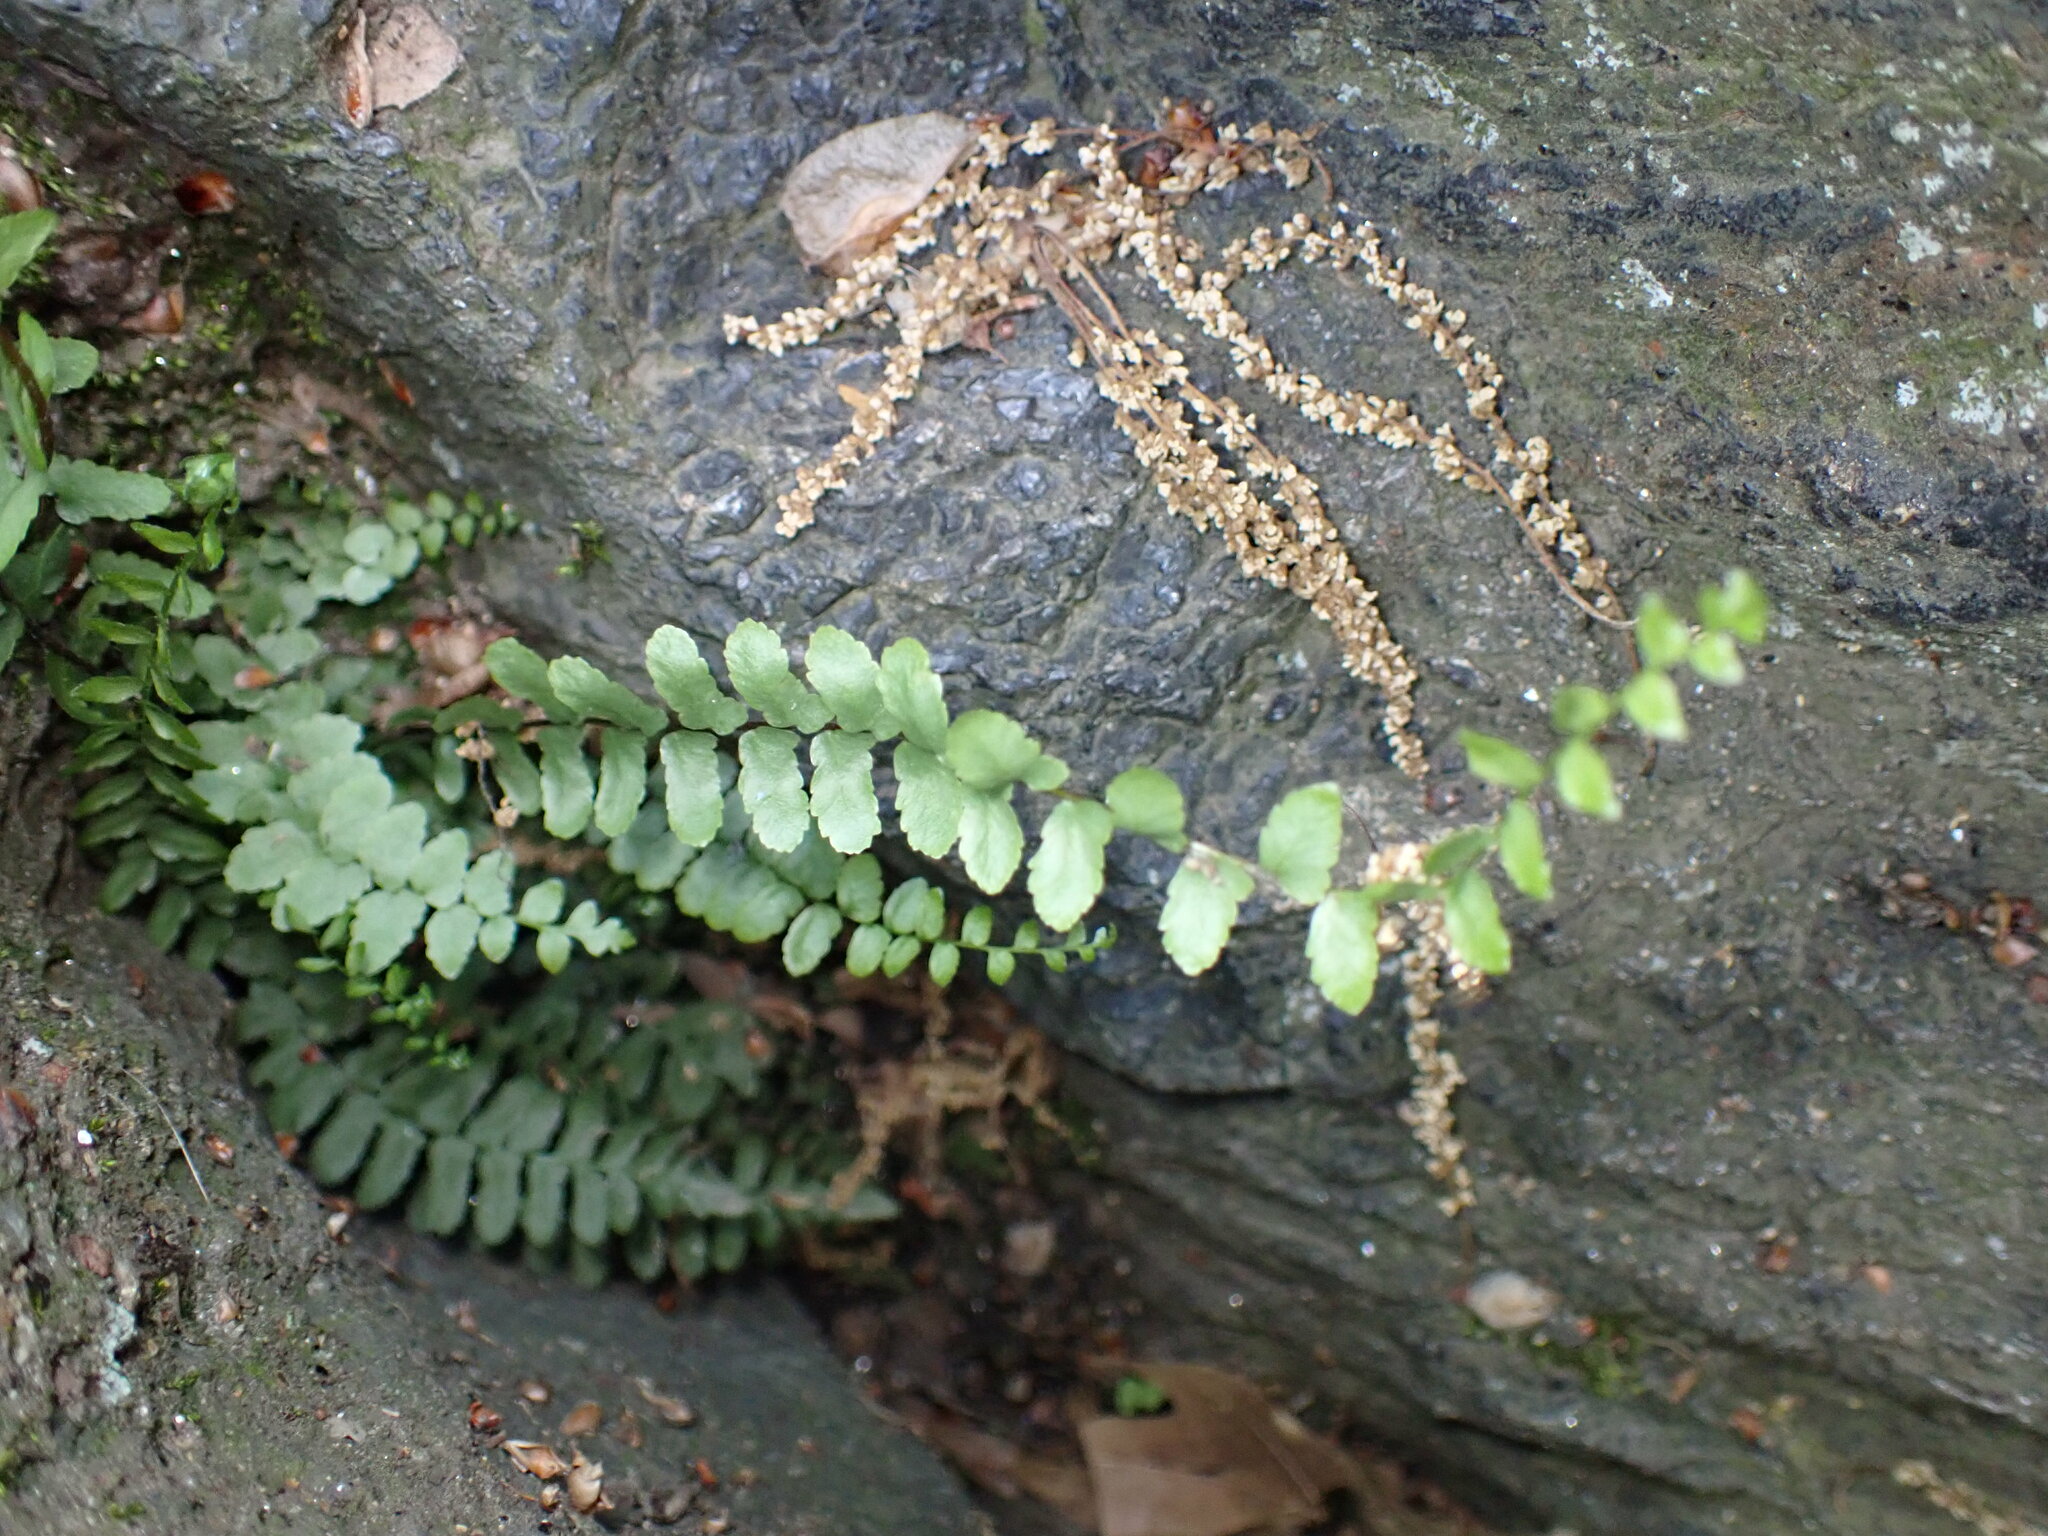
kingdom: Plantae
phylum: Tracheophyta
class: Polypodiopsida
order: Polypodiales
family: Aspleniaceae
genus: Asplenium
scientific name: Asplenium platyneuron
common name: Ebony spleenwort
